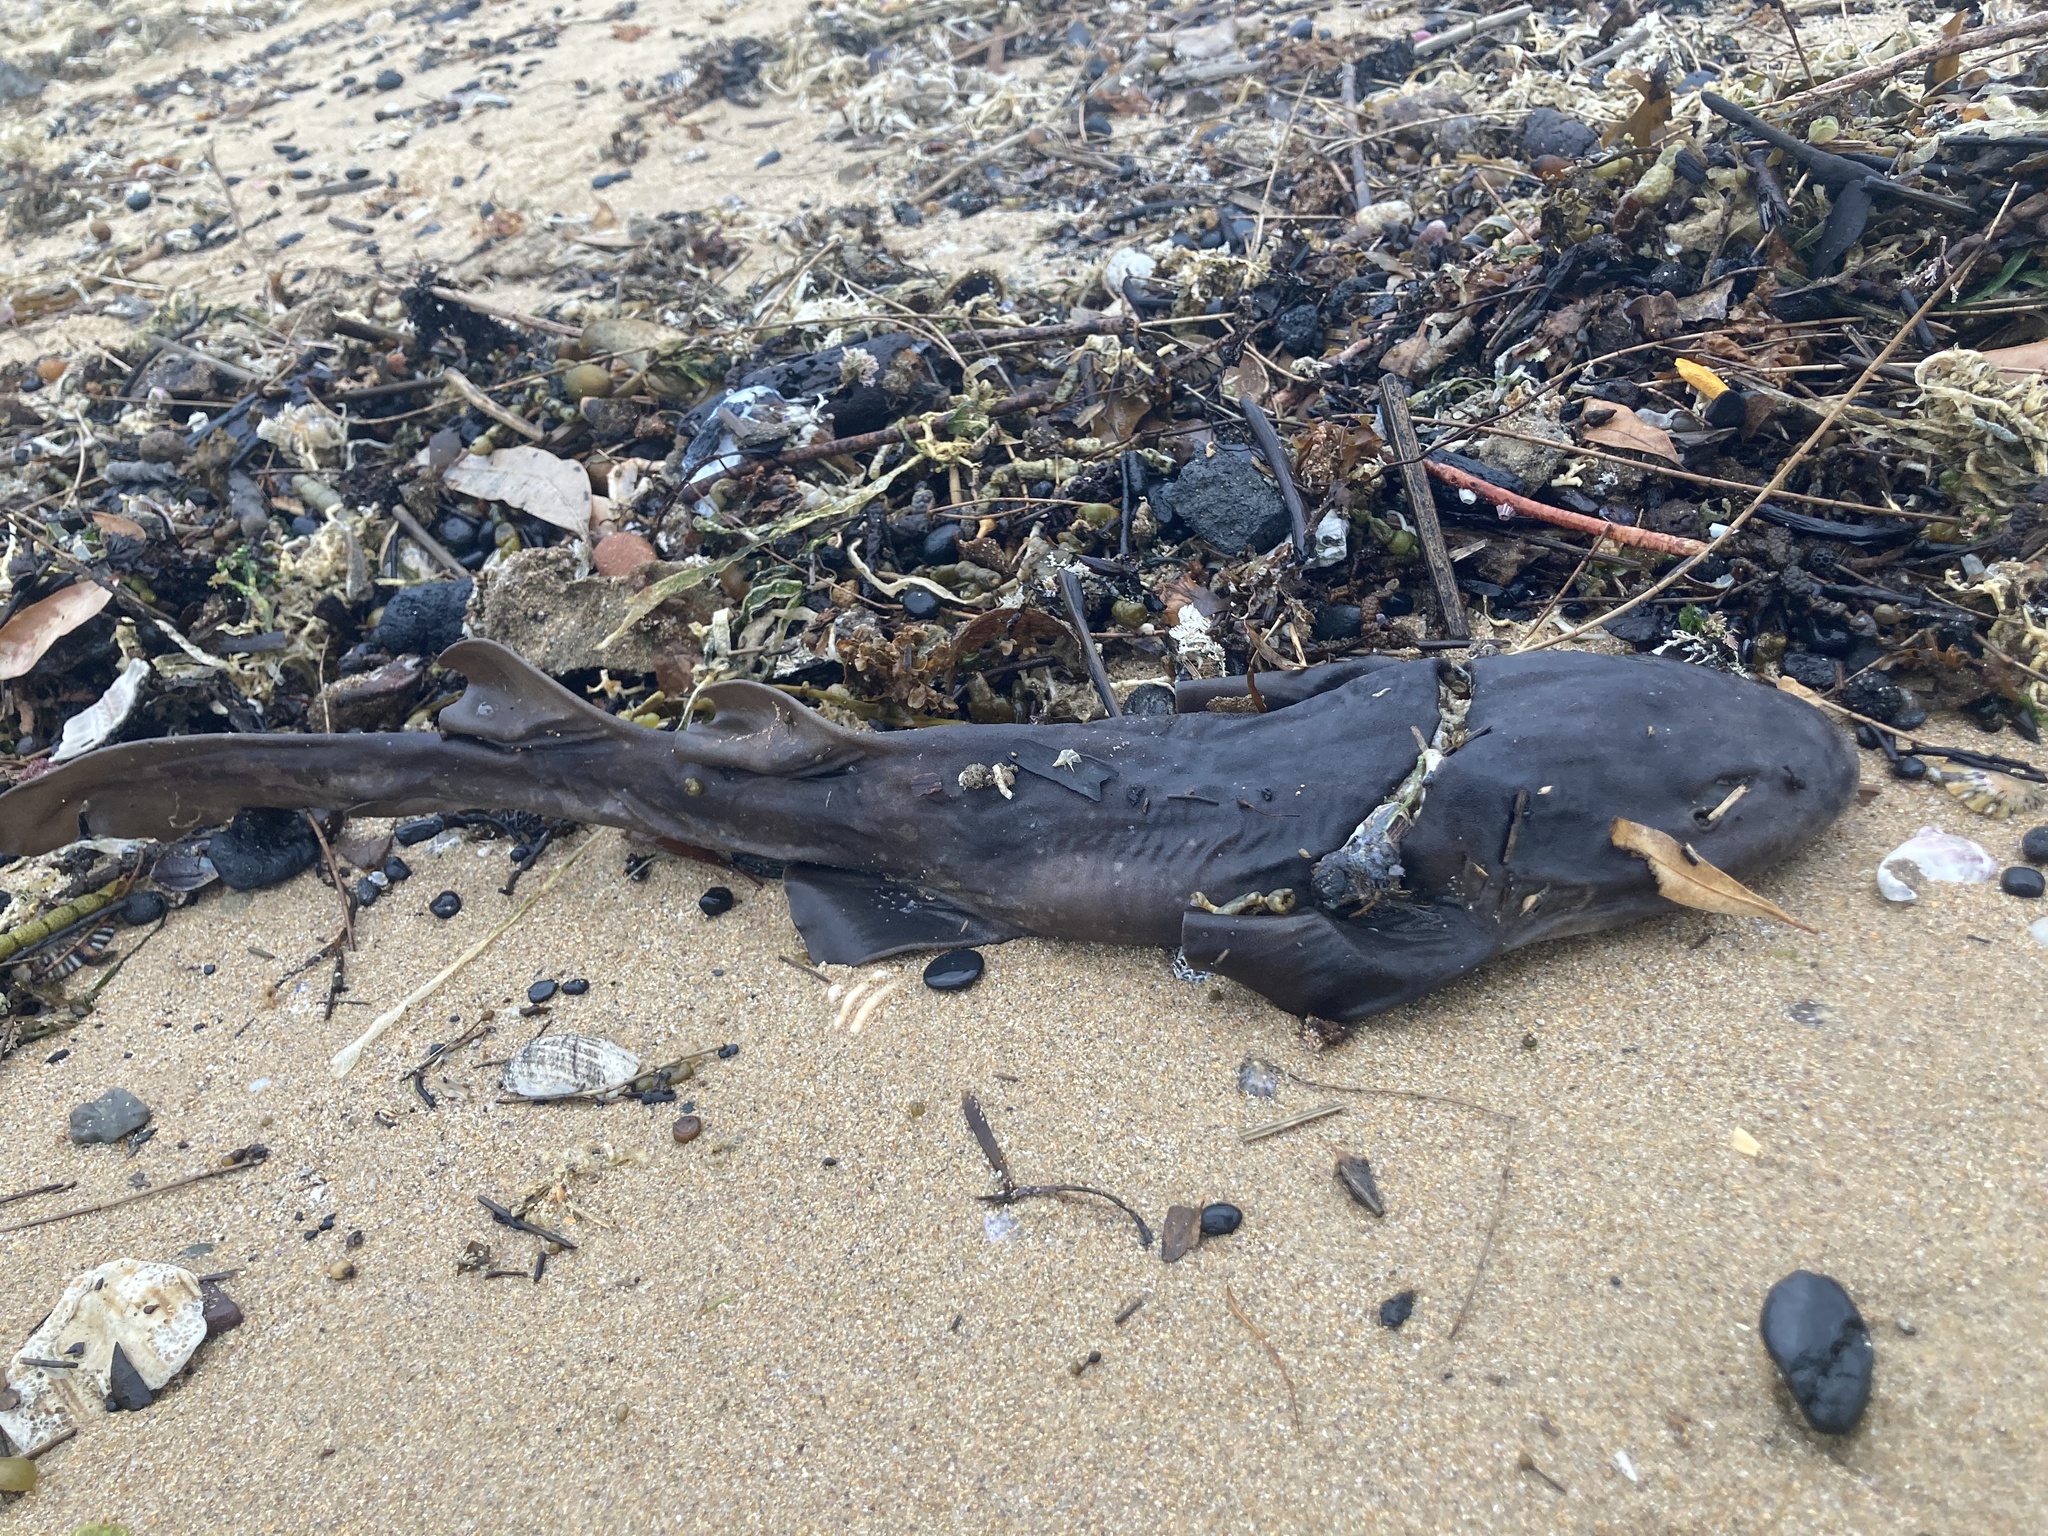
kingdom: Animalia
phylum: Chordata
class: Elasmobranchii
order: Orectolobiformes
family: Brachaeluridae
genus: Brachaelurus
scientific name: Brachaelurus waddi
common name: Blind shark
